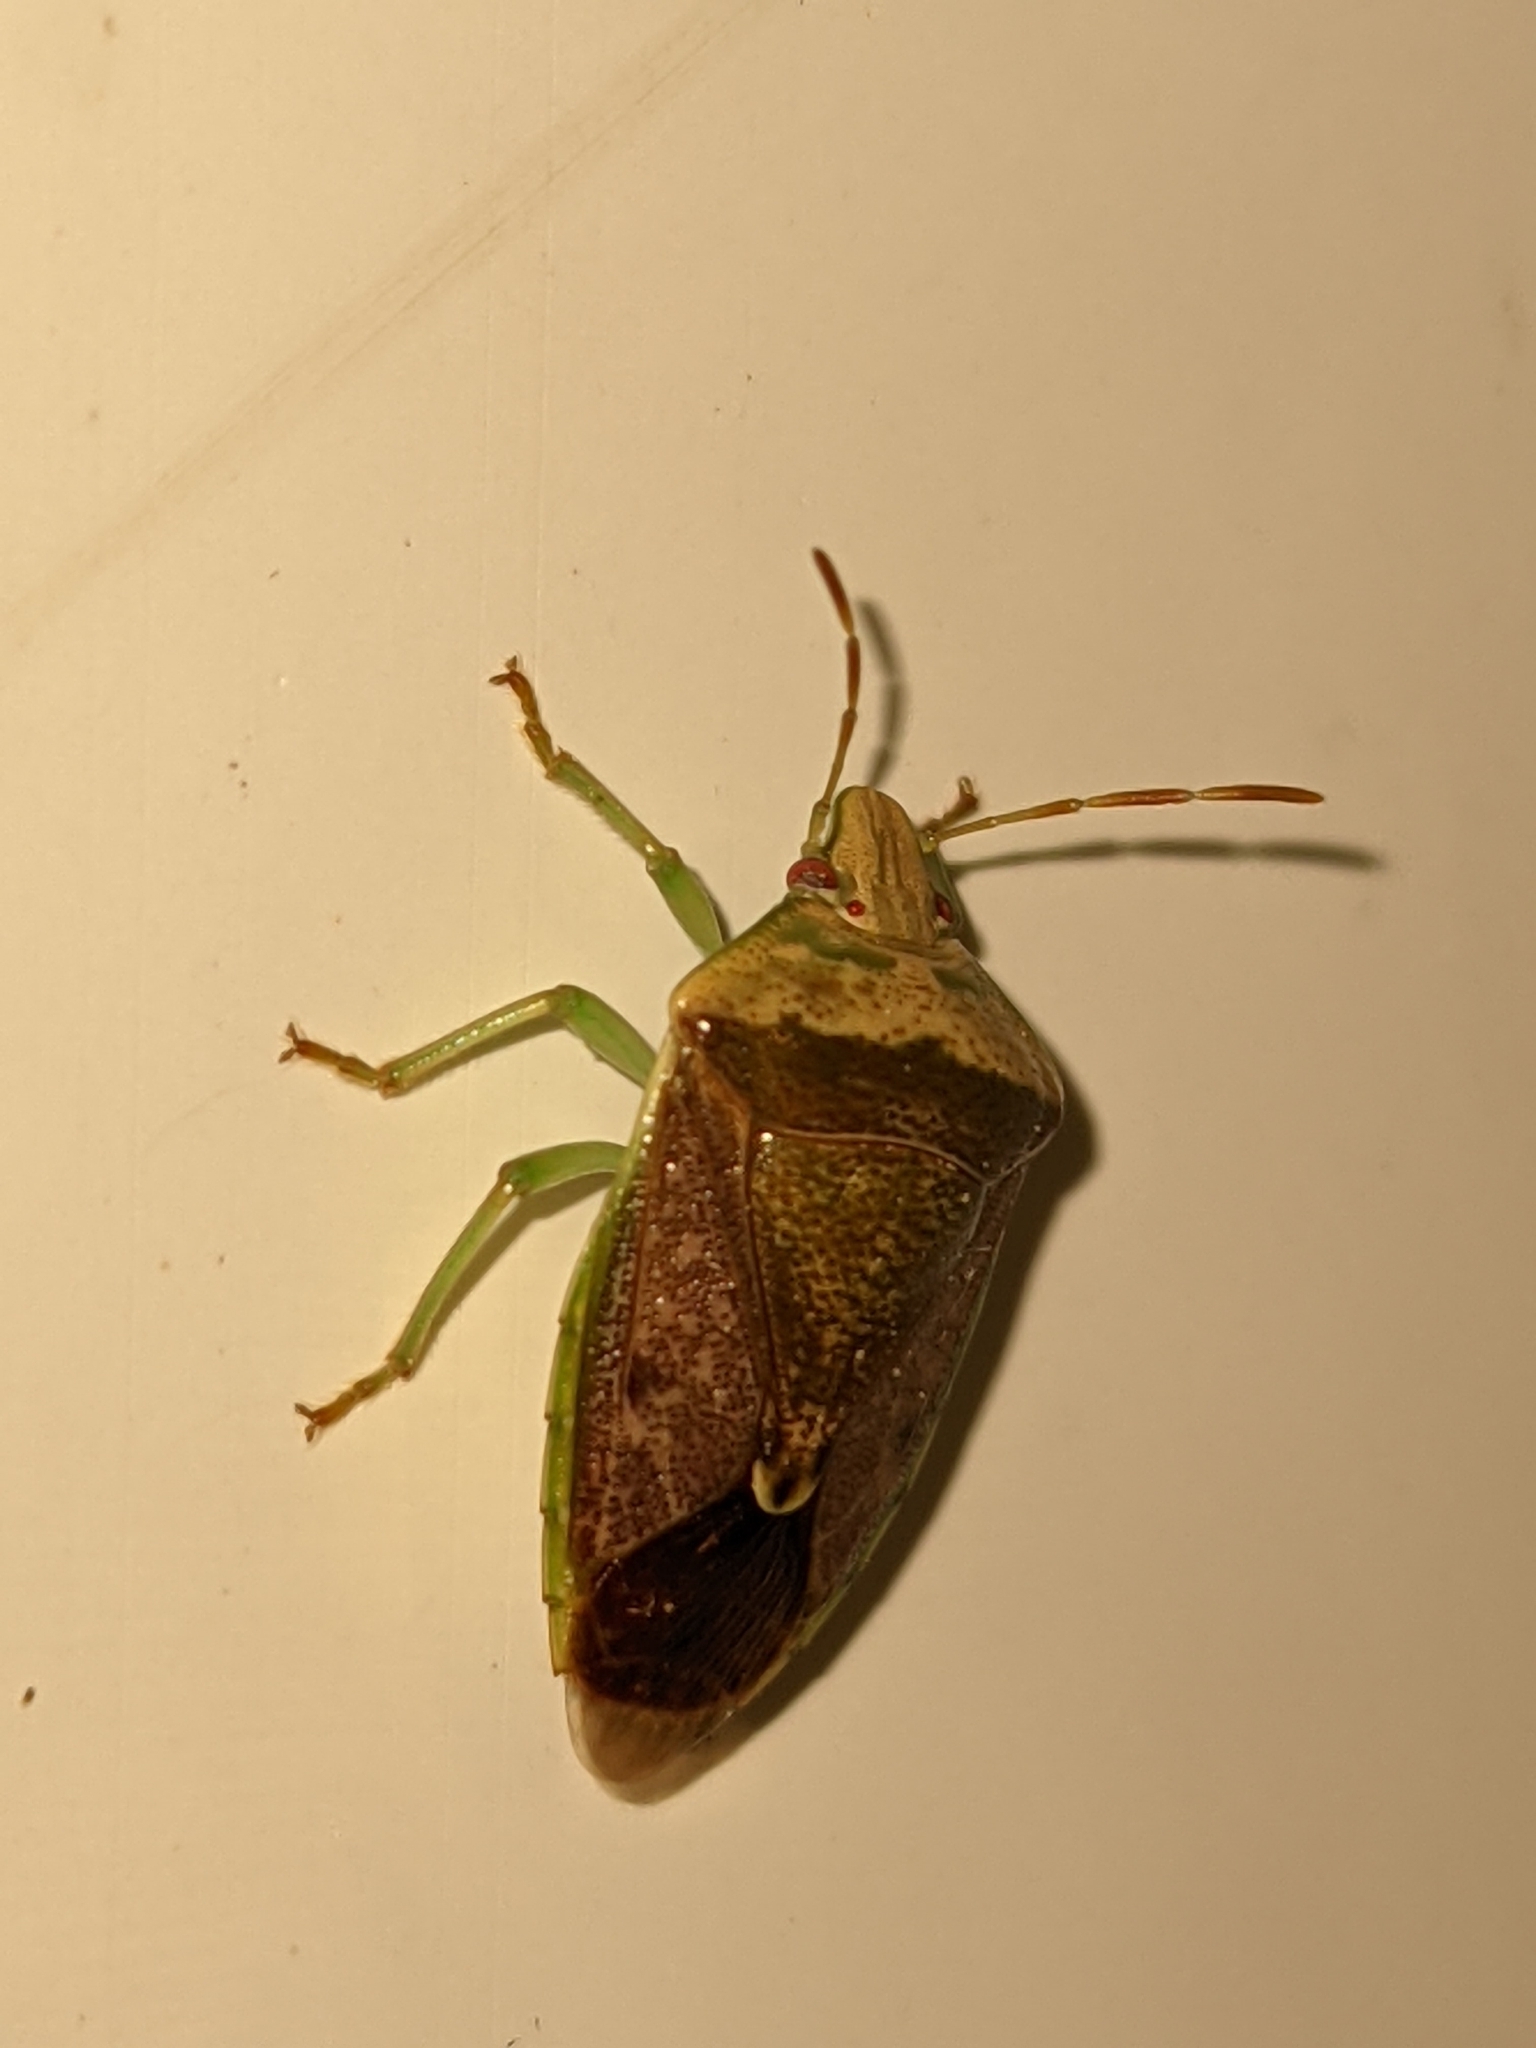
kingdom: Animalia
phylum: Arthropoda
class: Insecta
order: Hemiptera
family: Pentatomidae
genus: Banasa
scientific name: Banasa calva
